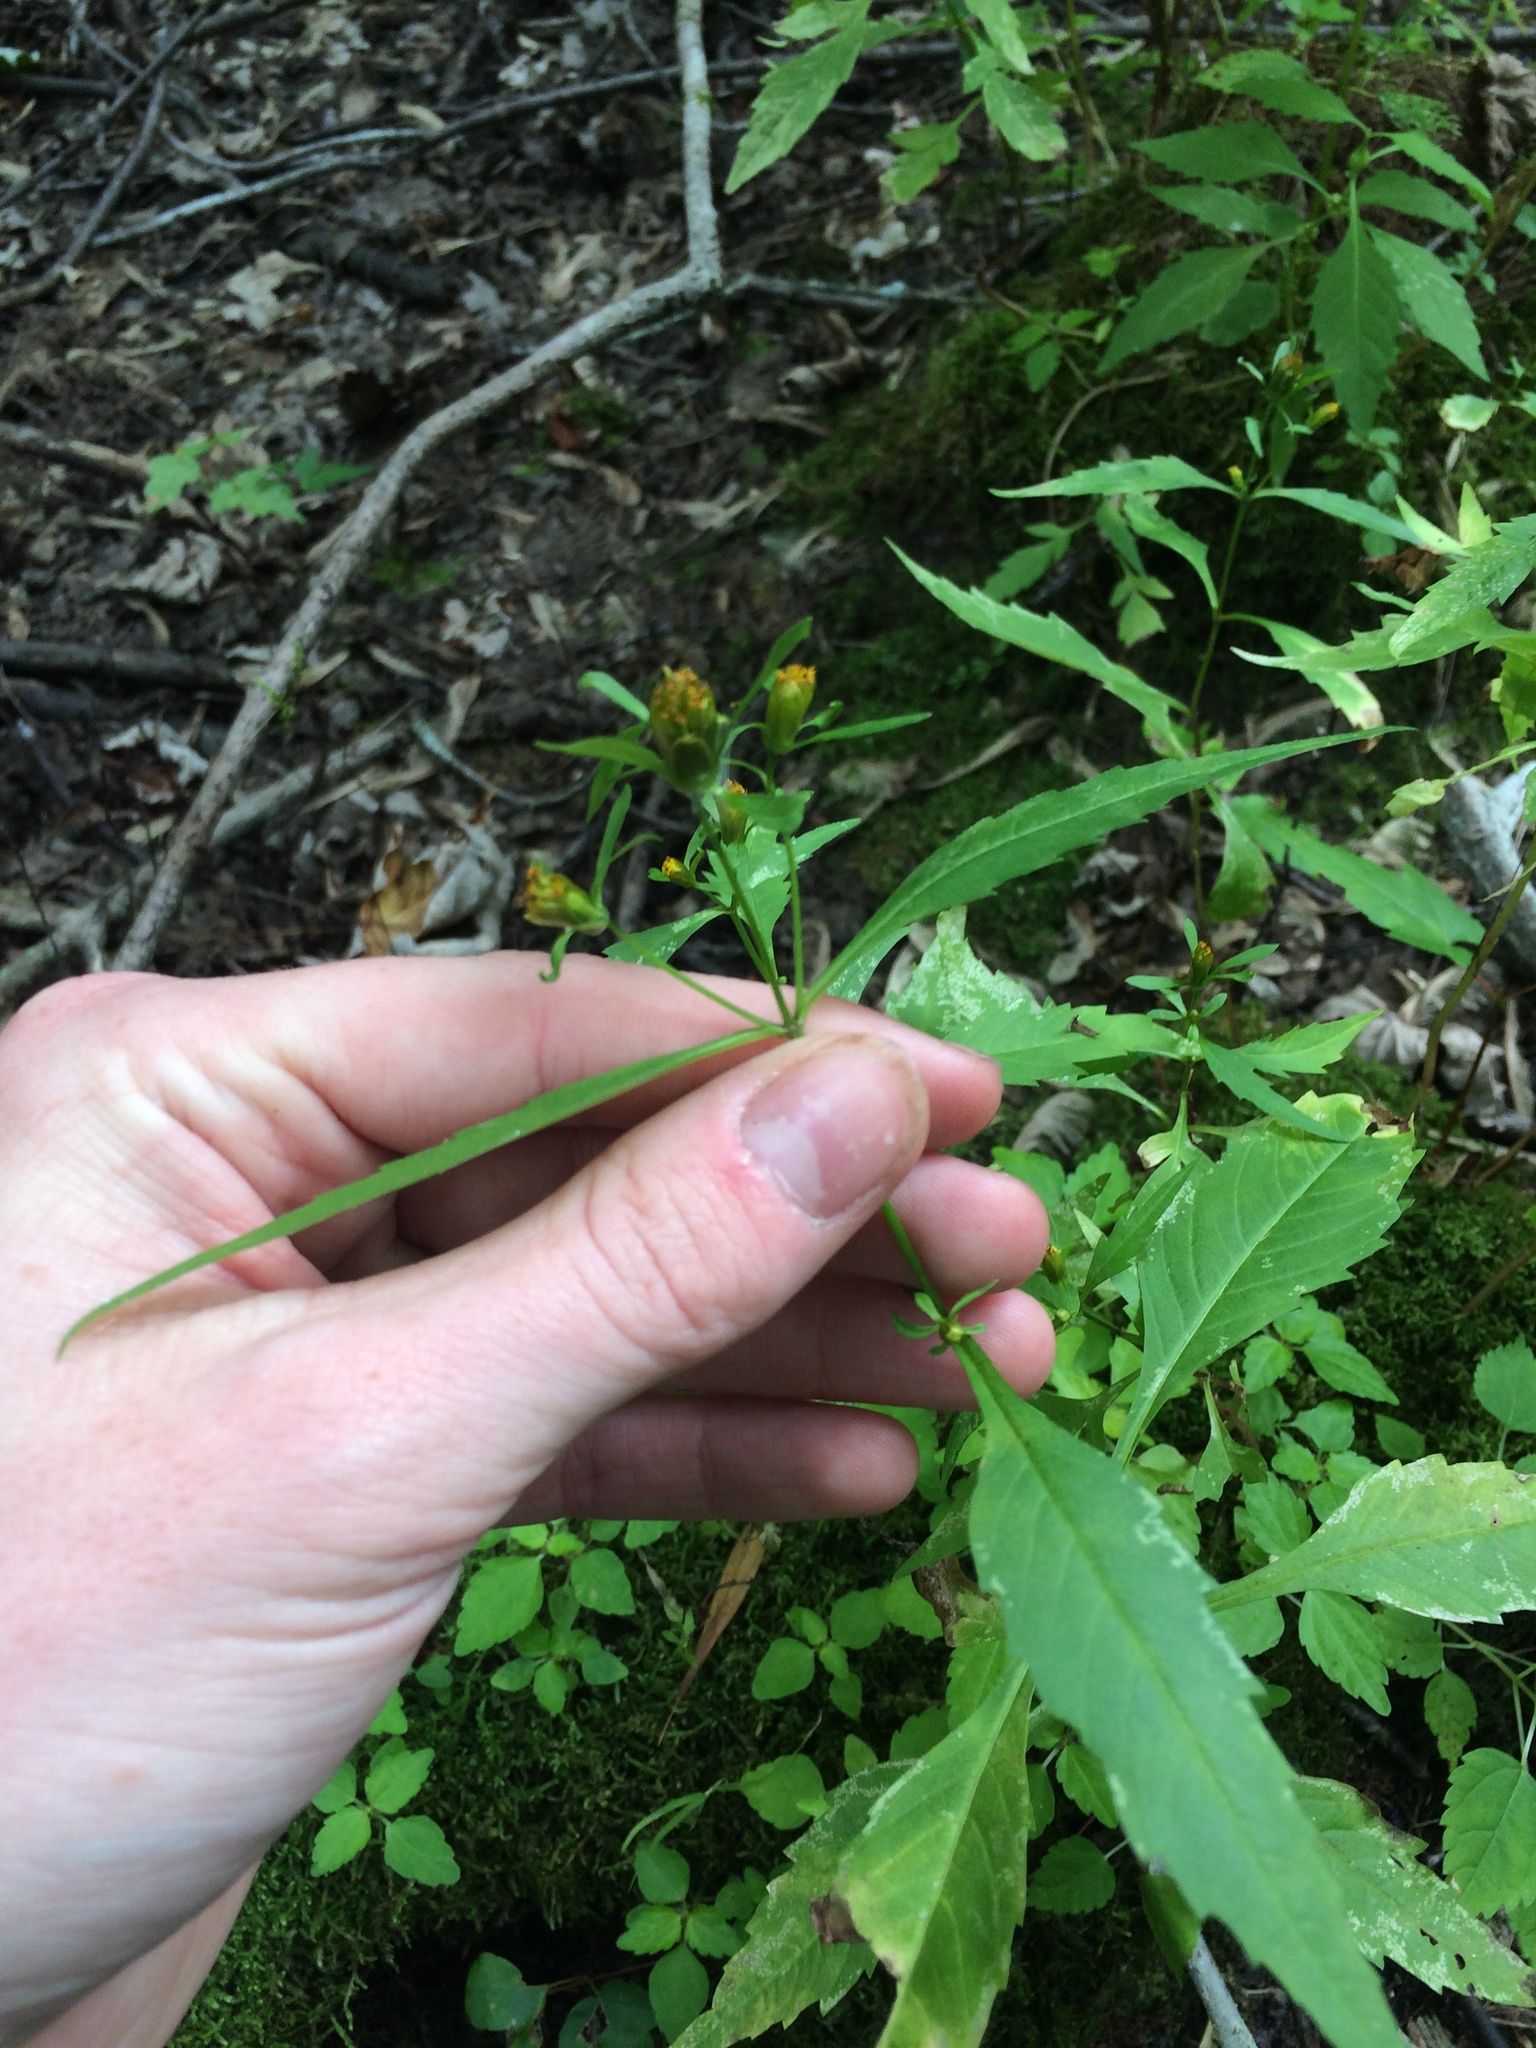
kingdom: Plantae
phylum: Tracheophyta
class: Magnoliopsida
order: Asterales
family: Asteraceae
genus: Bidens
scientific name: Bidens connata
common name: London bur-marigold
